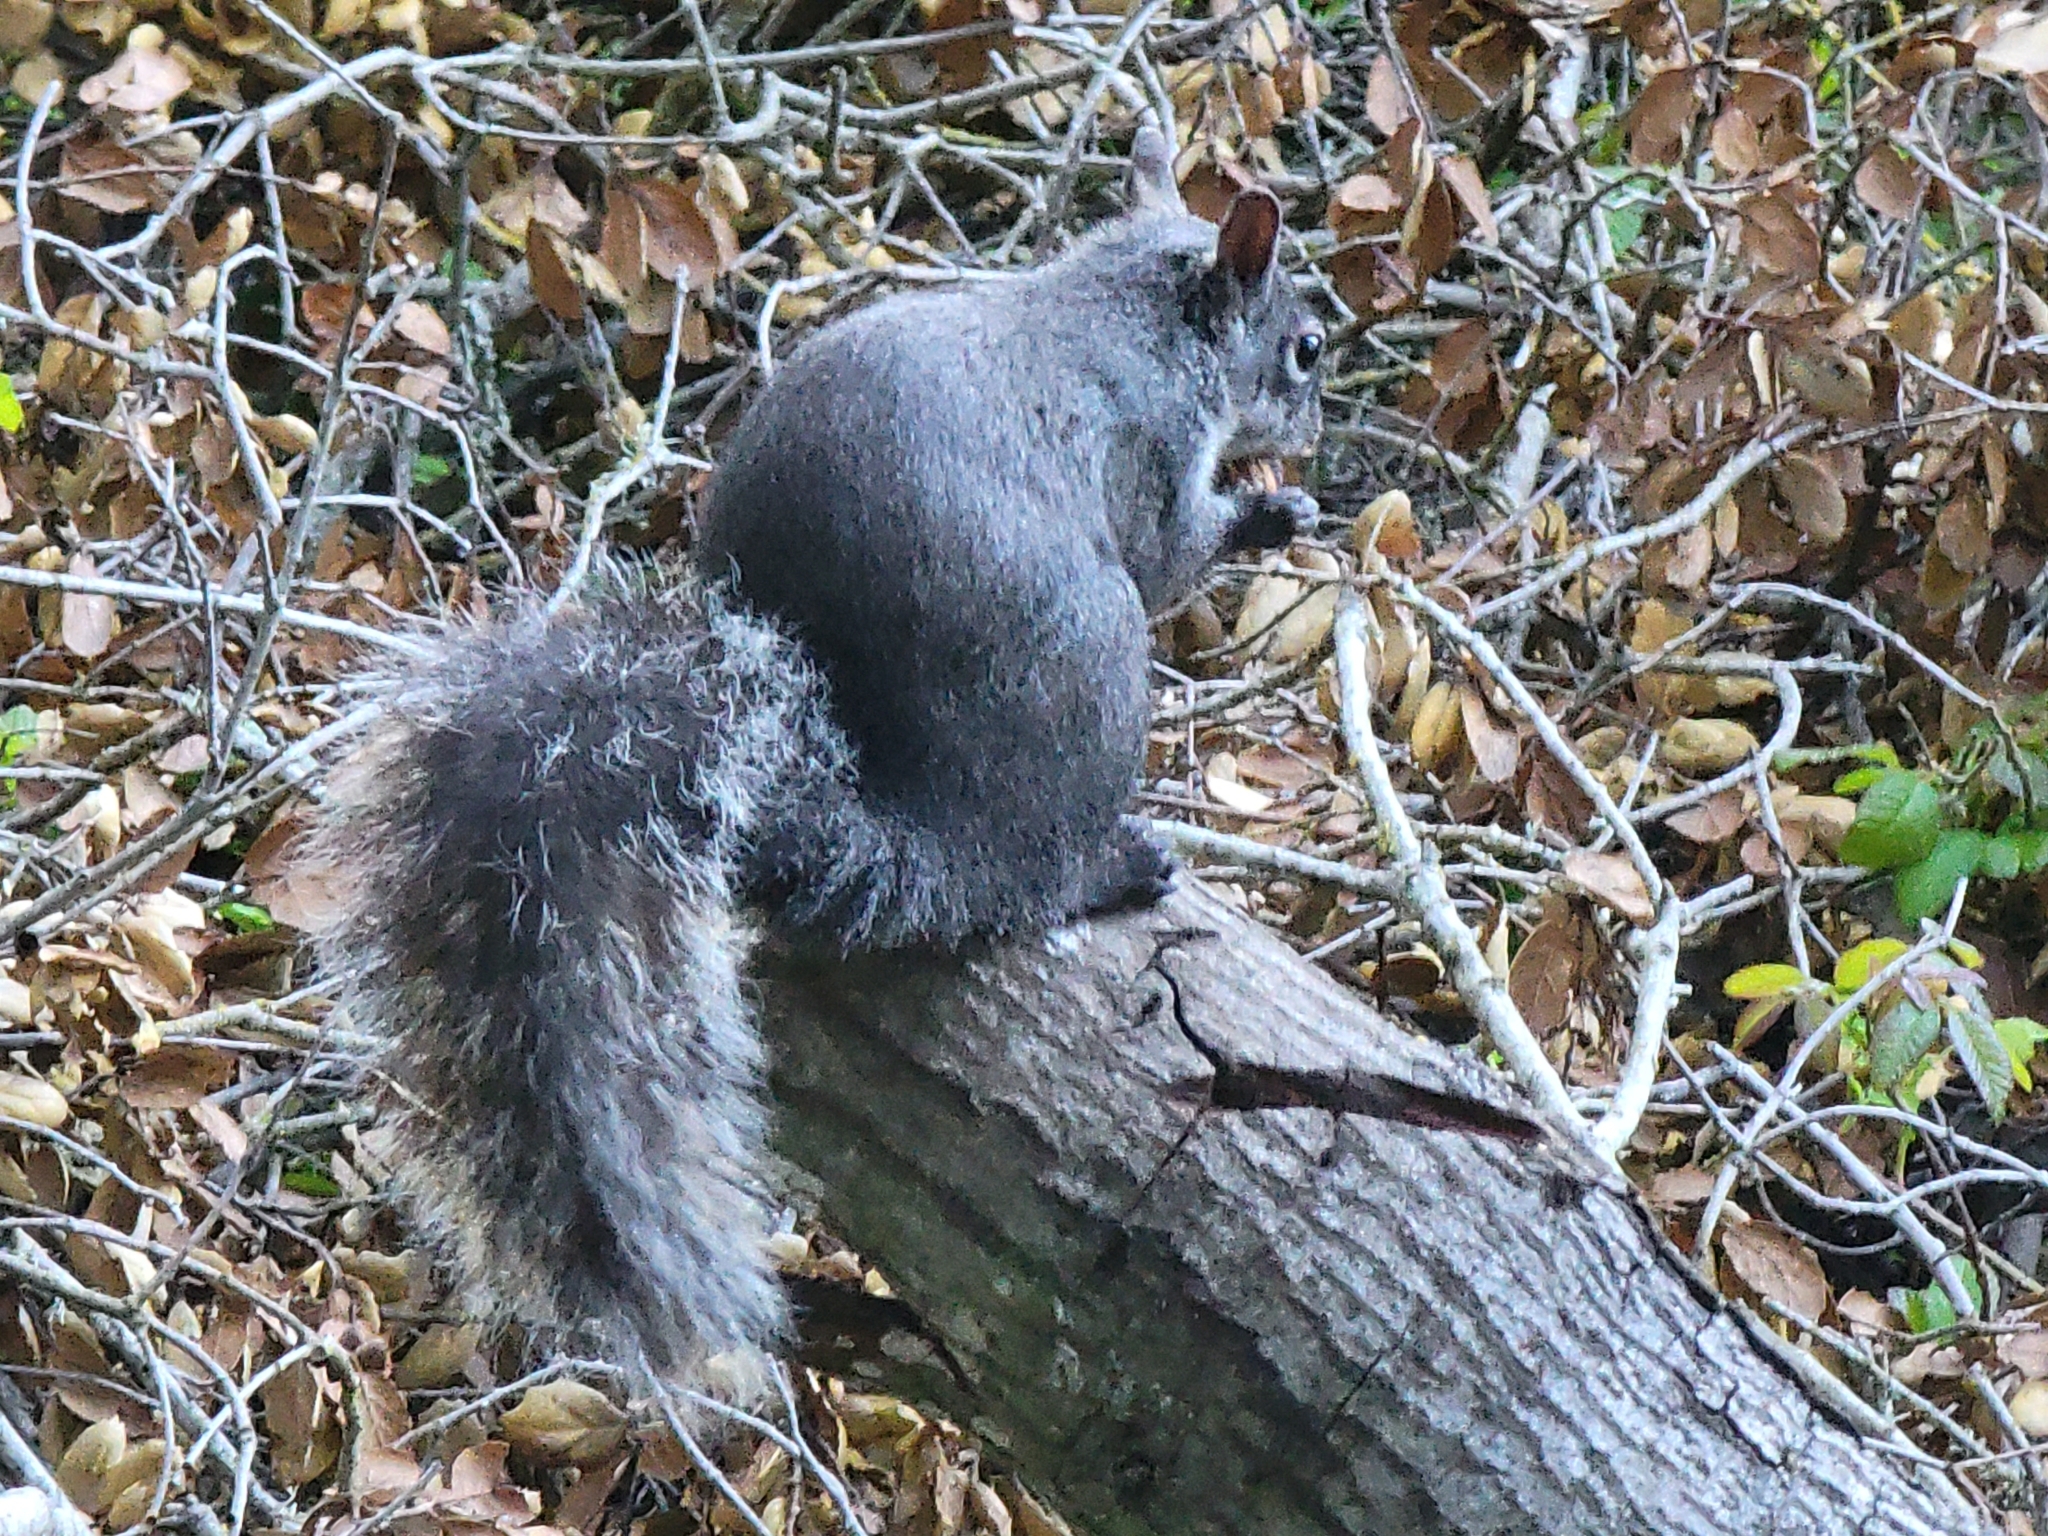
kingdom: Animalia
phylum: Chordata
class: Mammalia
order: Rodentia
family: Sciuridae
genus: Sciurus
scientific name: Sciurus griseus
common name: Western gray squirrel
